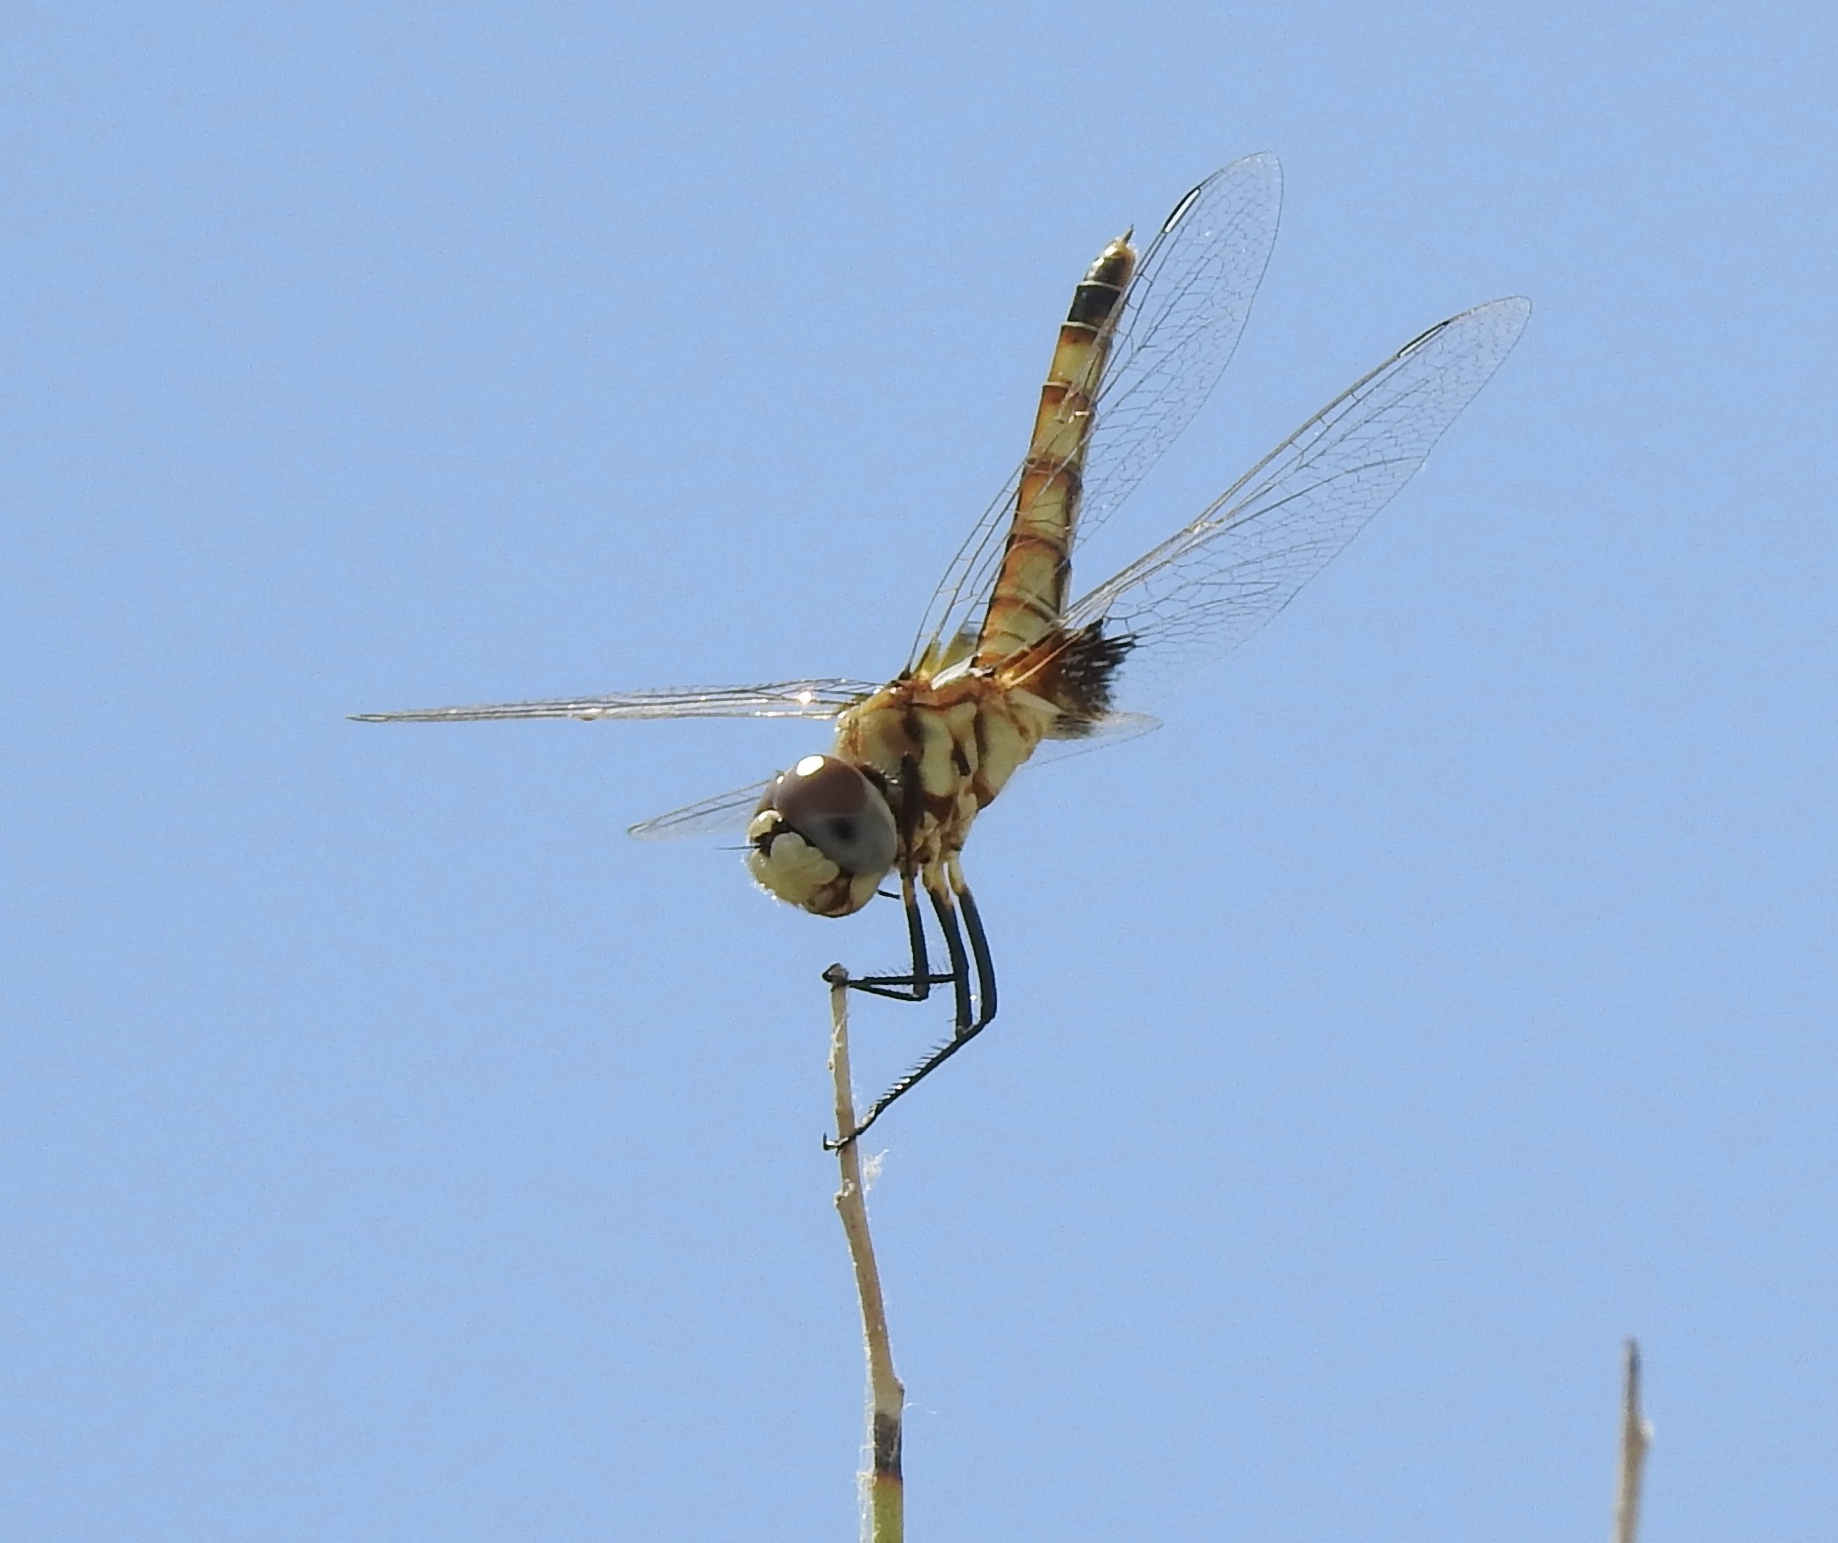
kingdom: Animalia
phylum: Arthropoda
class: Insecta
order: Odonata
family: Libellulidae
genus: Macrodiplax
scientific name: Macrodiplax balteata
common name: Marl pennant
